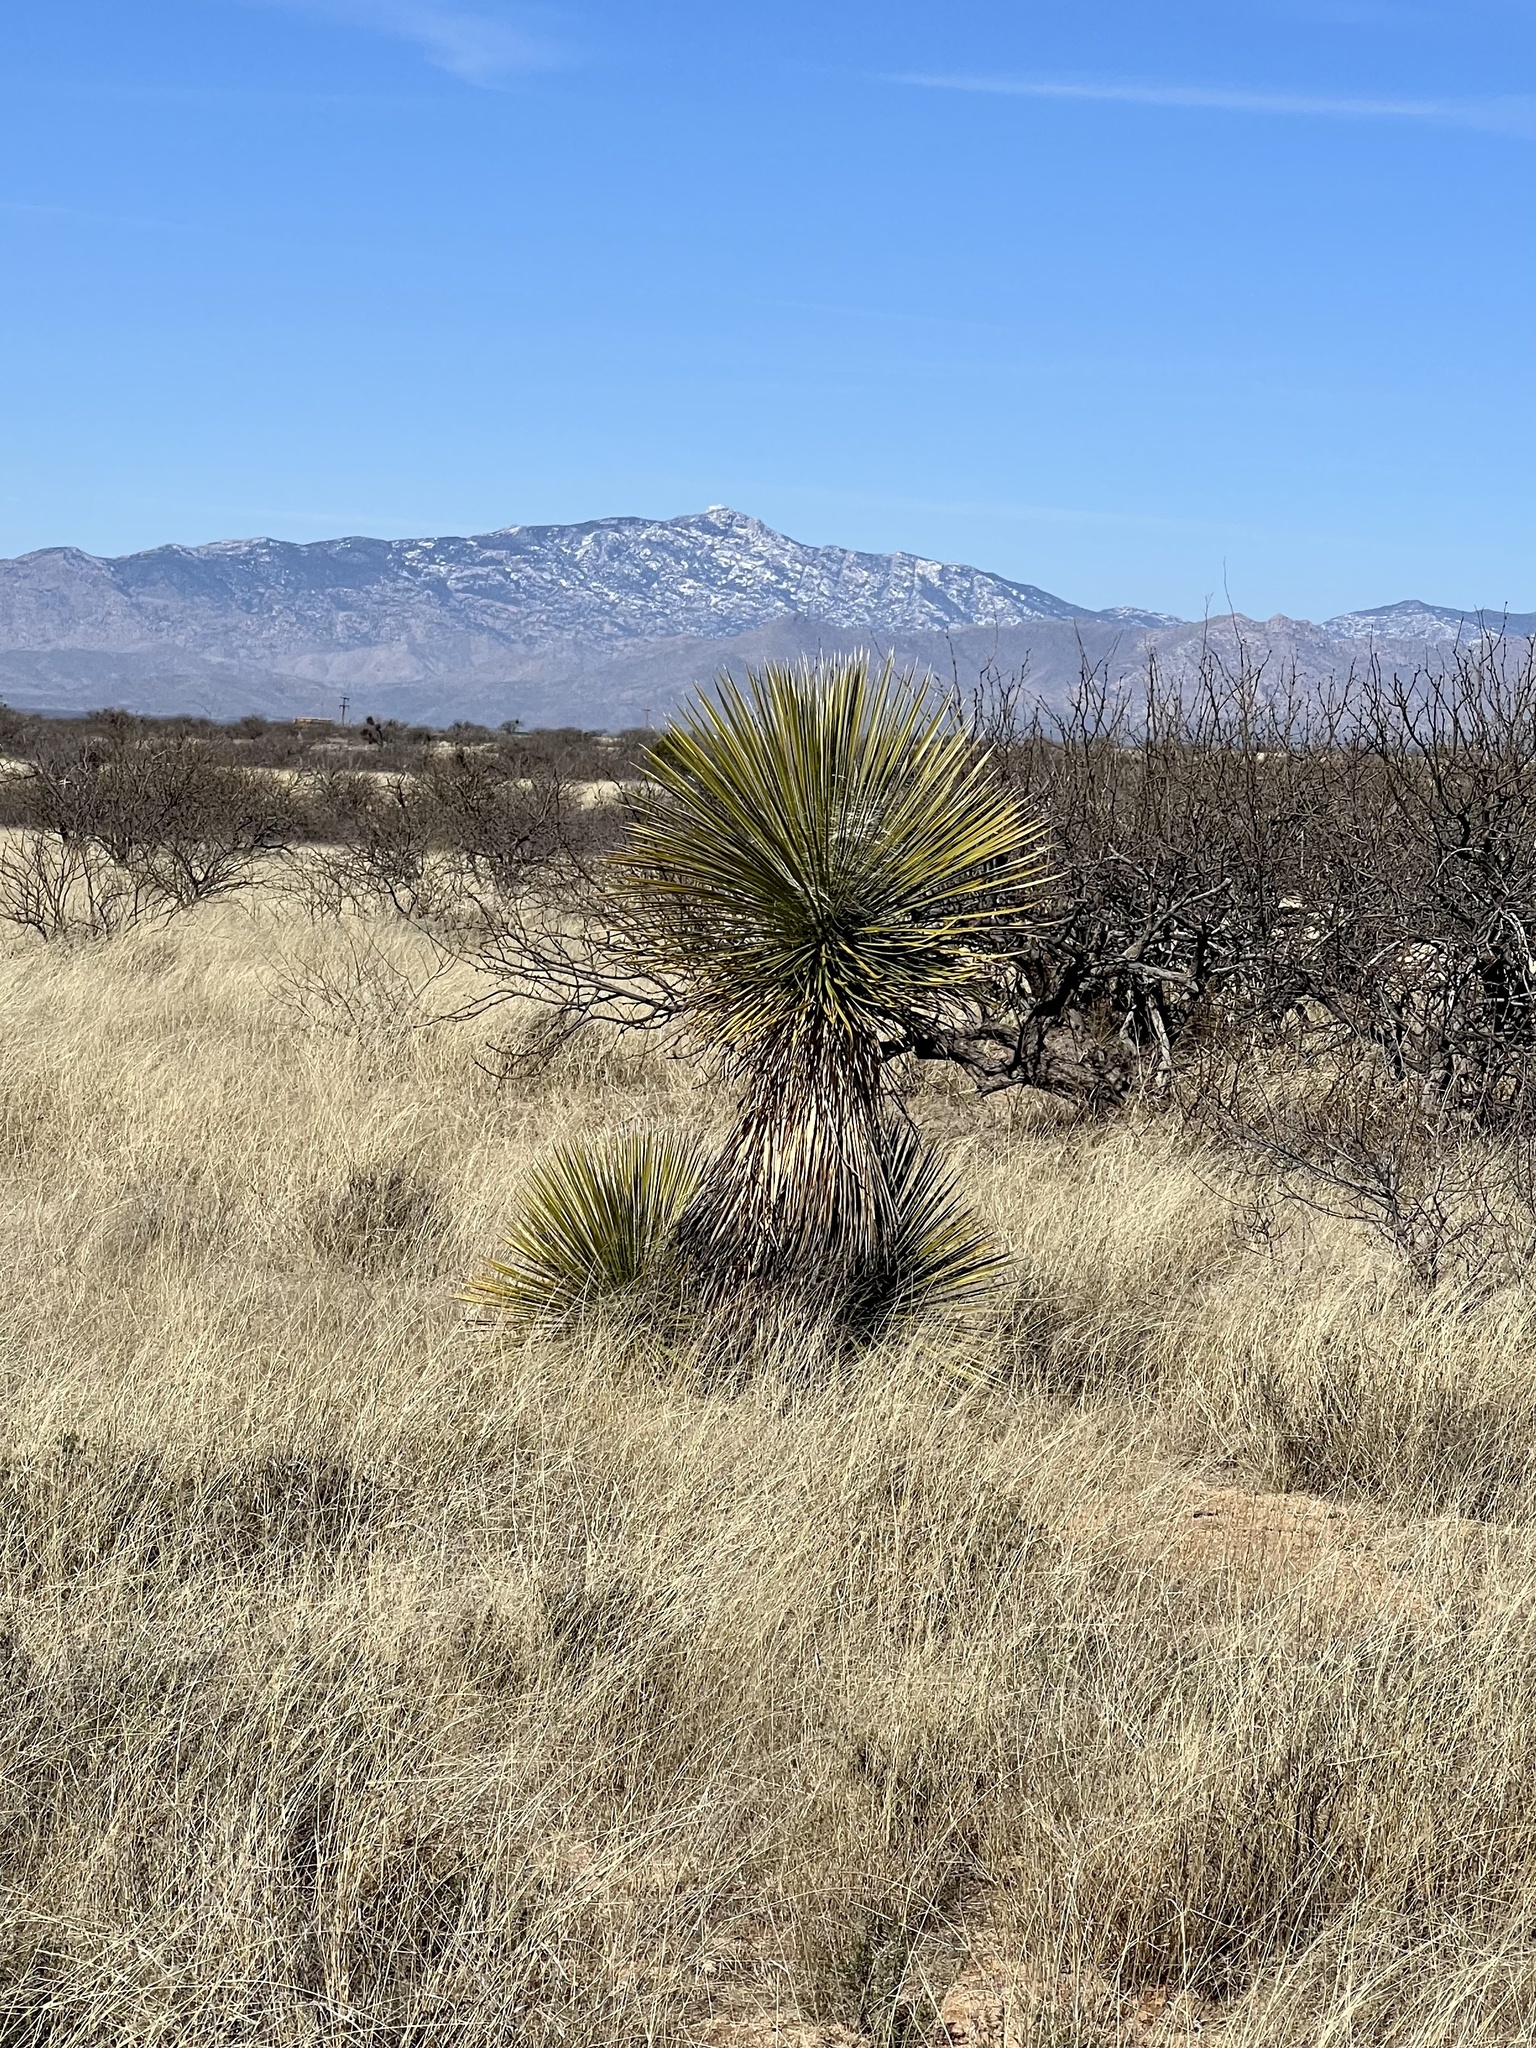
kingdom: Plantae
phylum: Tracheophyta
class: Liliopsida
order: Asparagales
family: Asparagaceae
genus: Yucca
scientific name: Yucca elata
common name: Palmella
